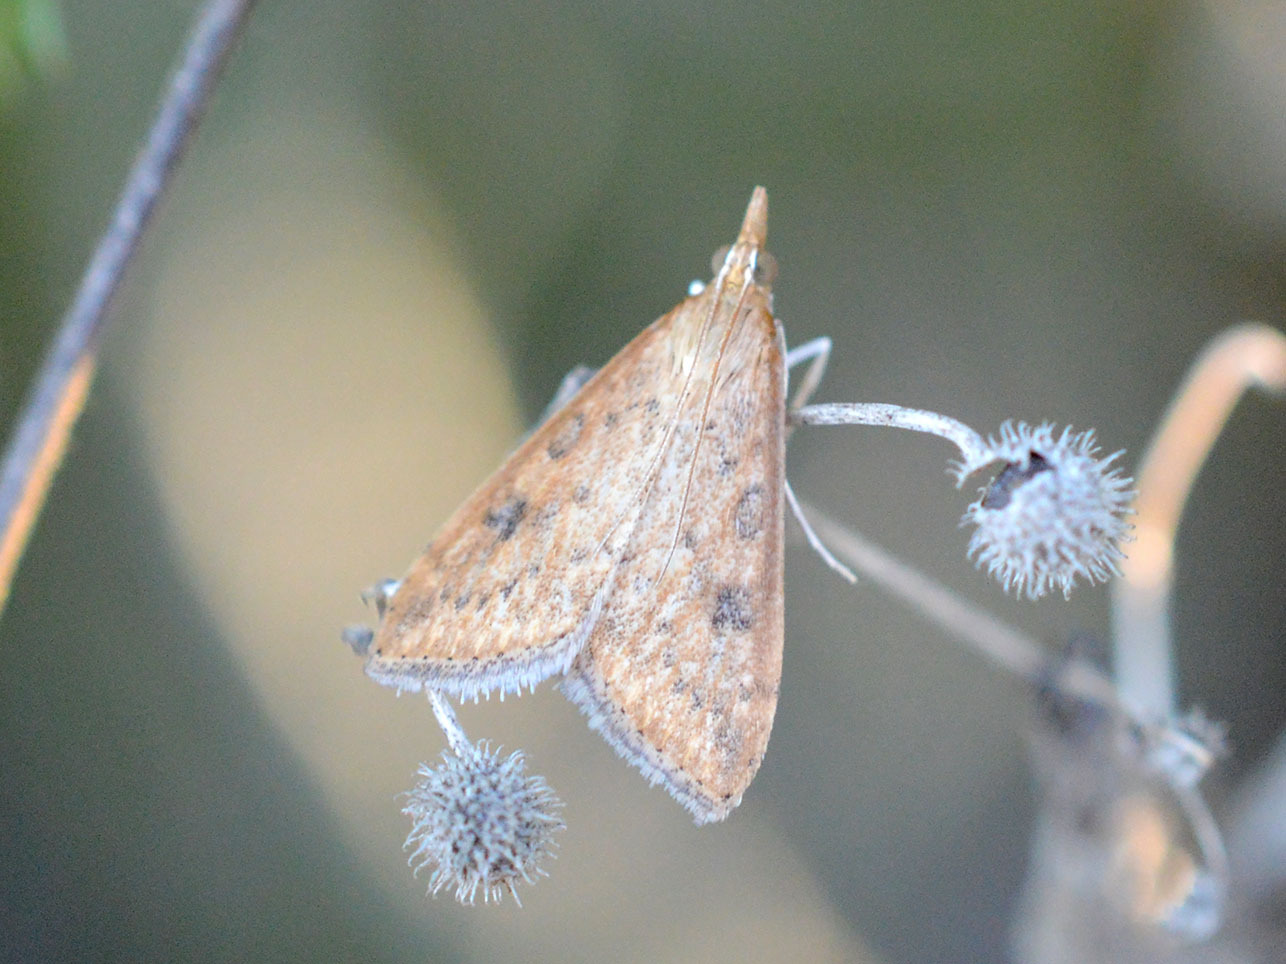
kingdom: Animalia
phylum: Arthropoda
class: Insecta
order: Lepidoptera
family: Crambidae
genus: Udea
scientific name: Udea ferrugalis
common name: Rusty dot
